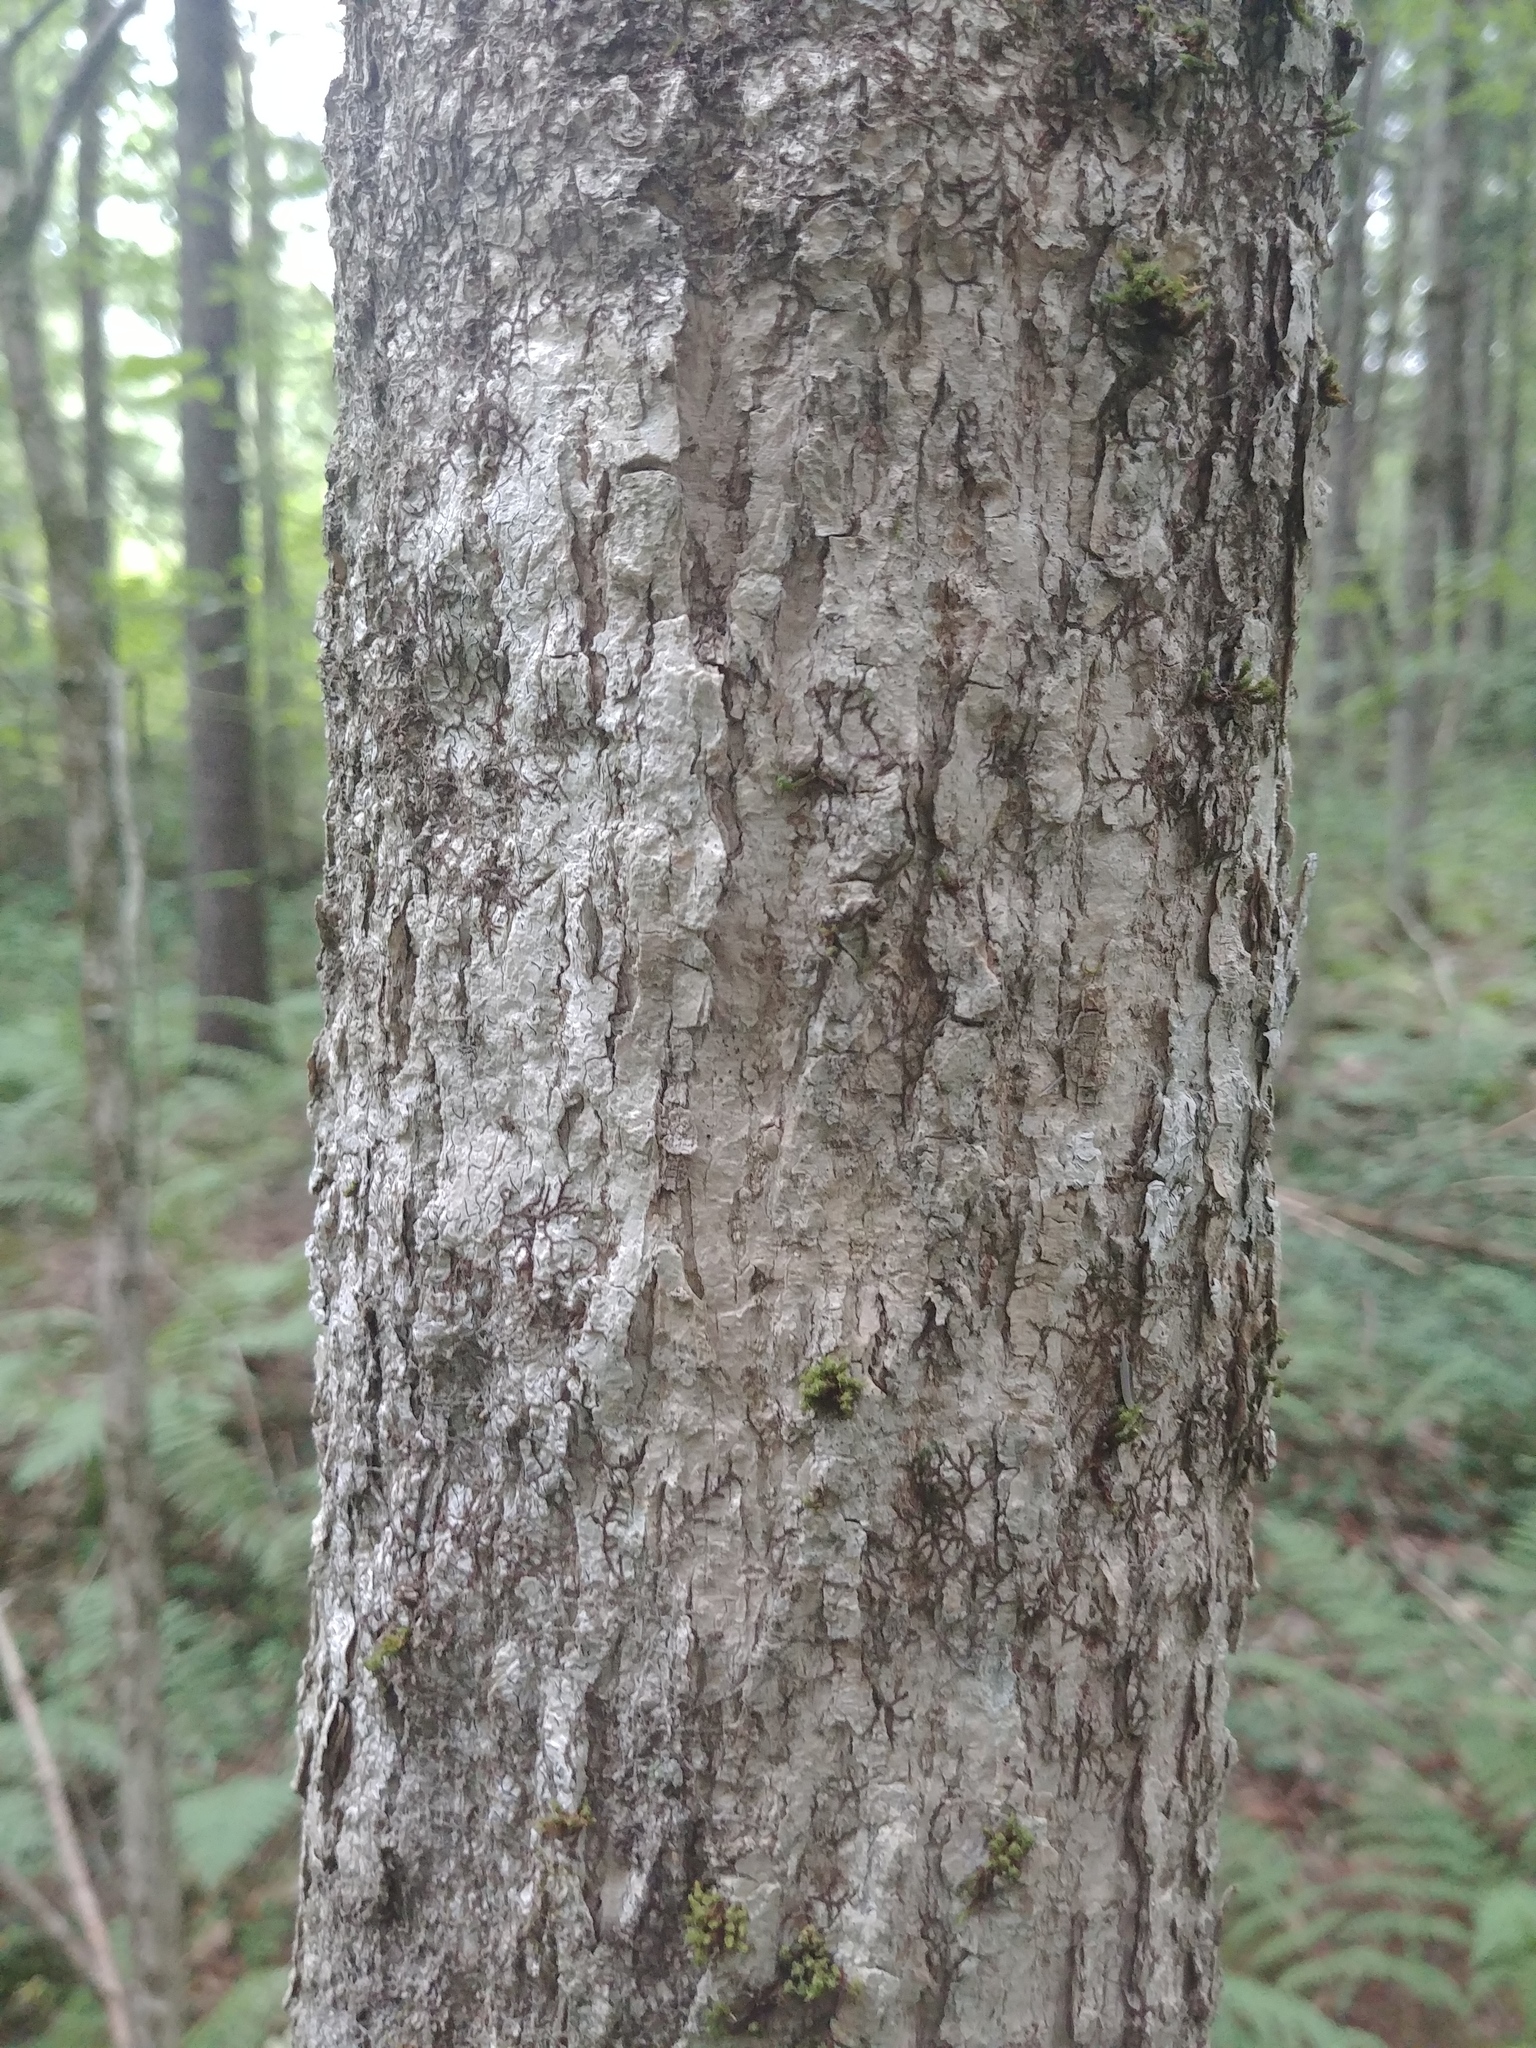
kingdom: Plantae
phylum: Tracheophyta
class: Magnoliopsida
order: Lamiales
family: Oleaceae
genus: Fraxinus
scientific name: Fraxinus nigra
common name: Black ash
